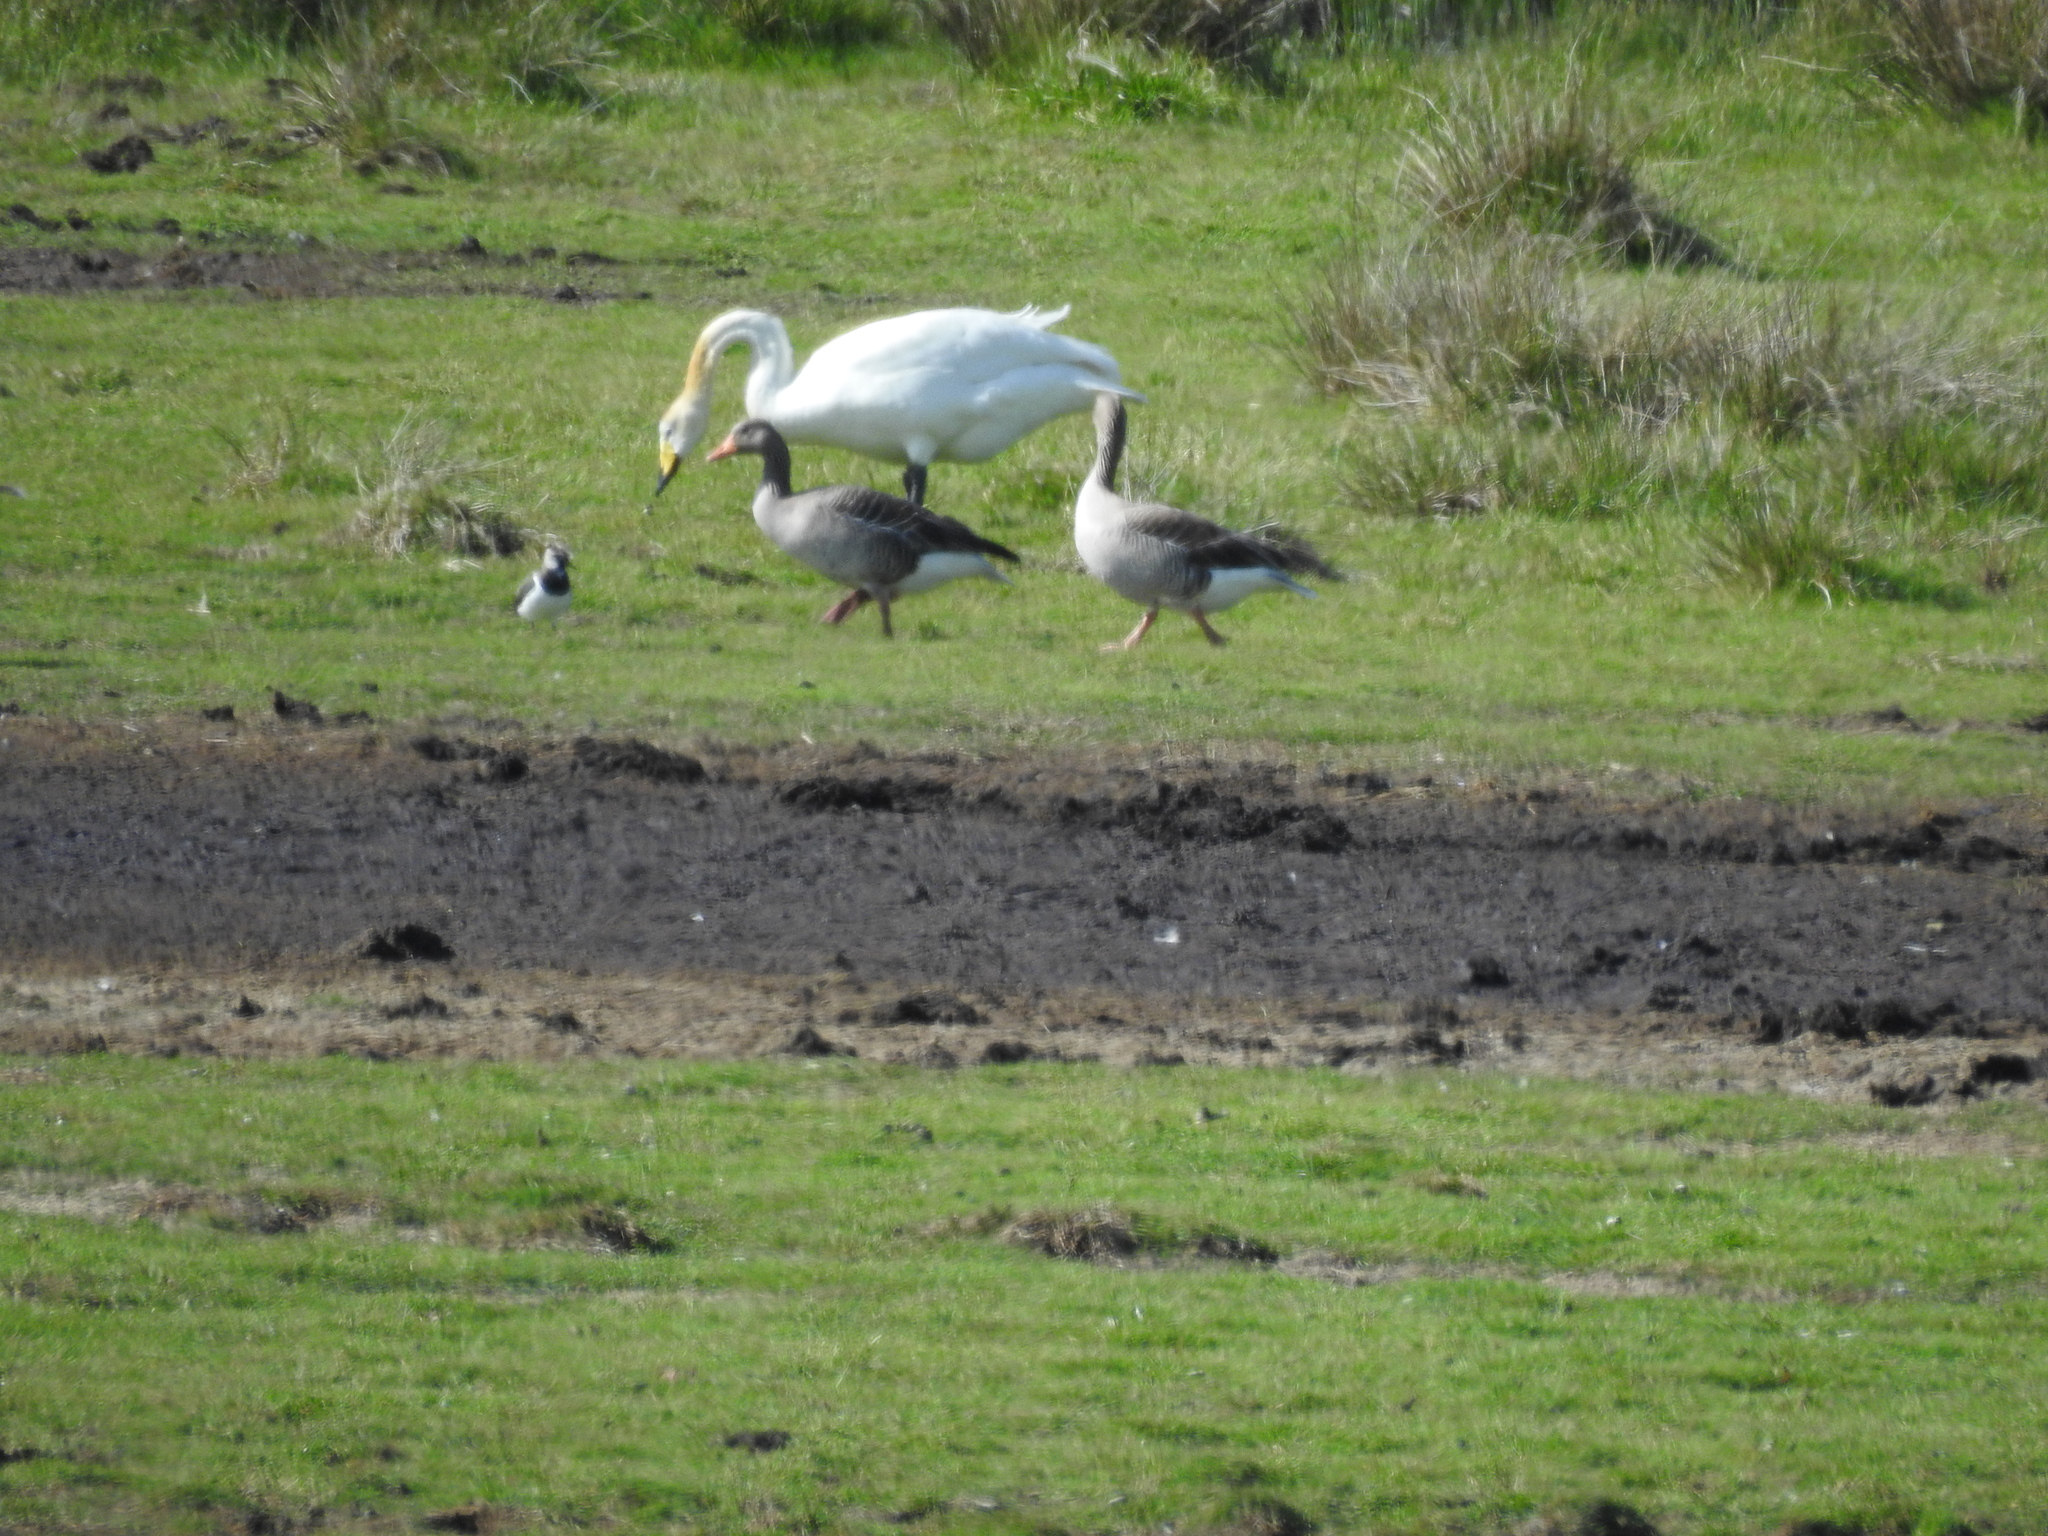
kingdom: Animalia
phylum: Chordata
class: Aves
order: Anseriformes
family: Anatidae
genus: Anser
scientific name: Anser anser
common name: Greylag goose
